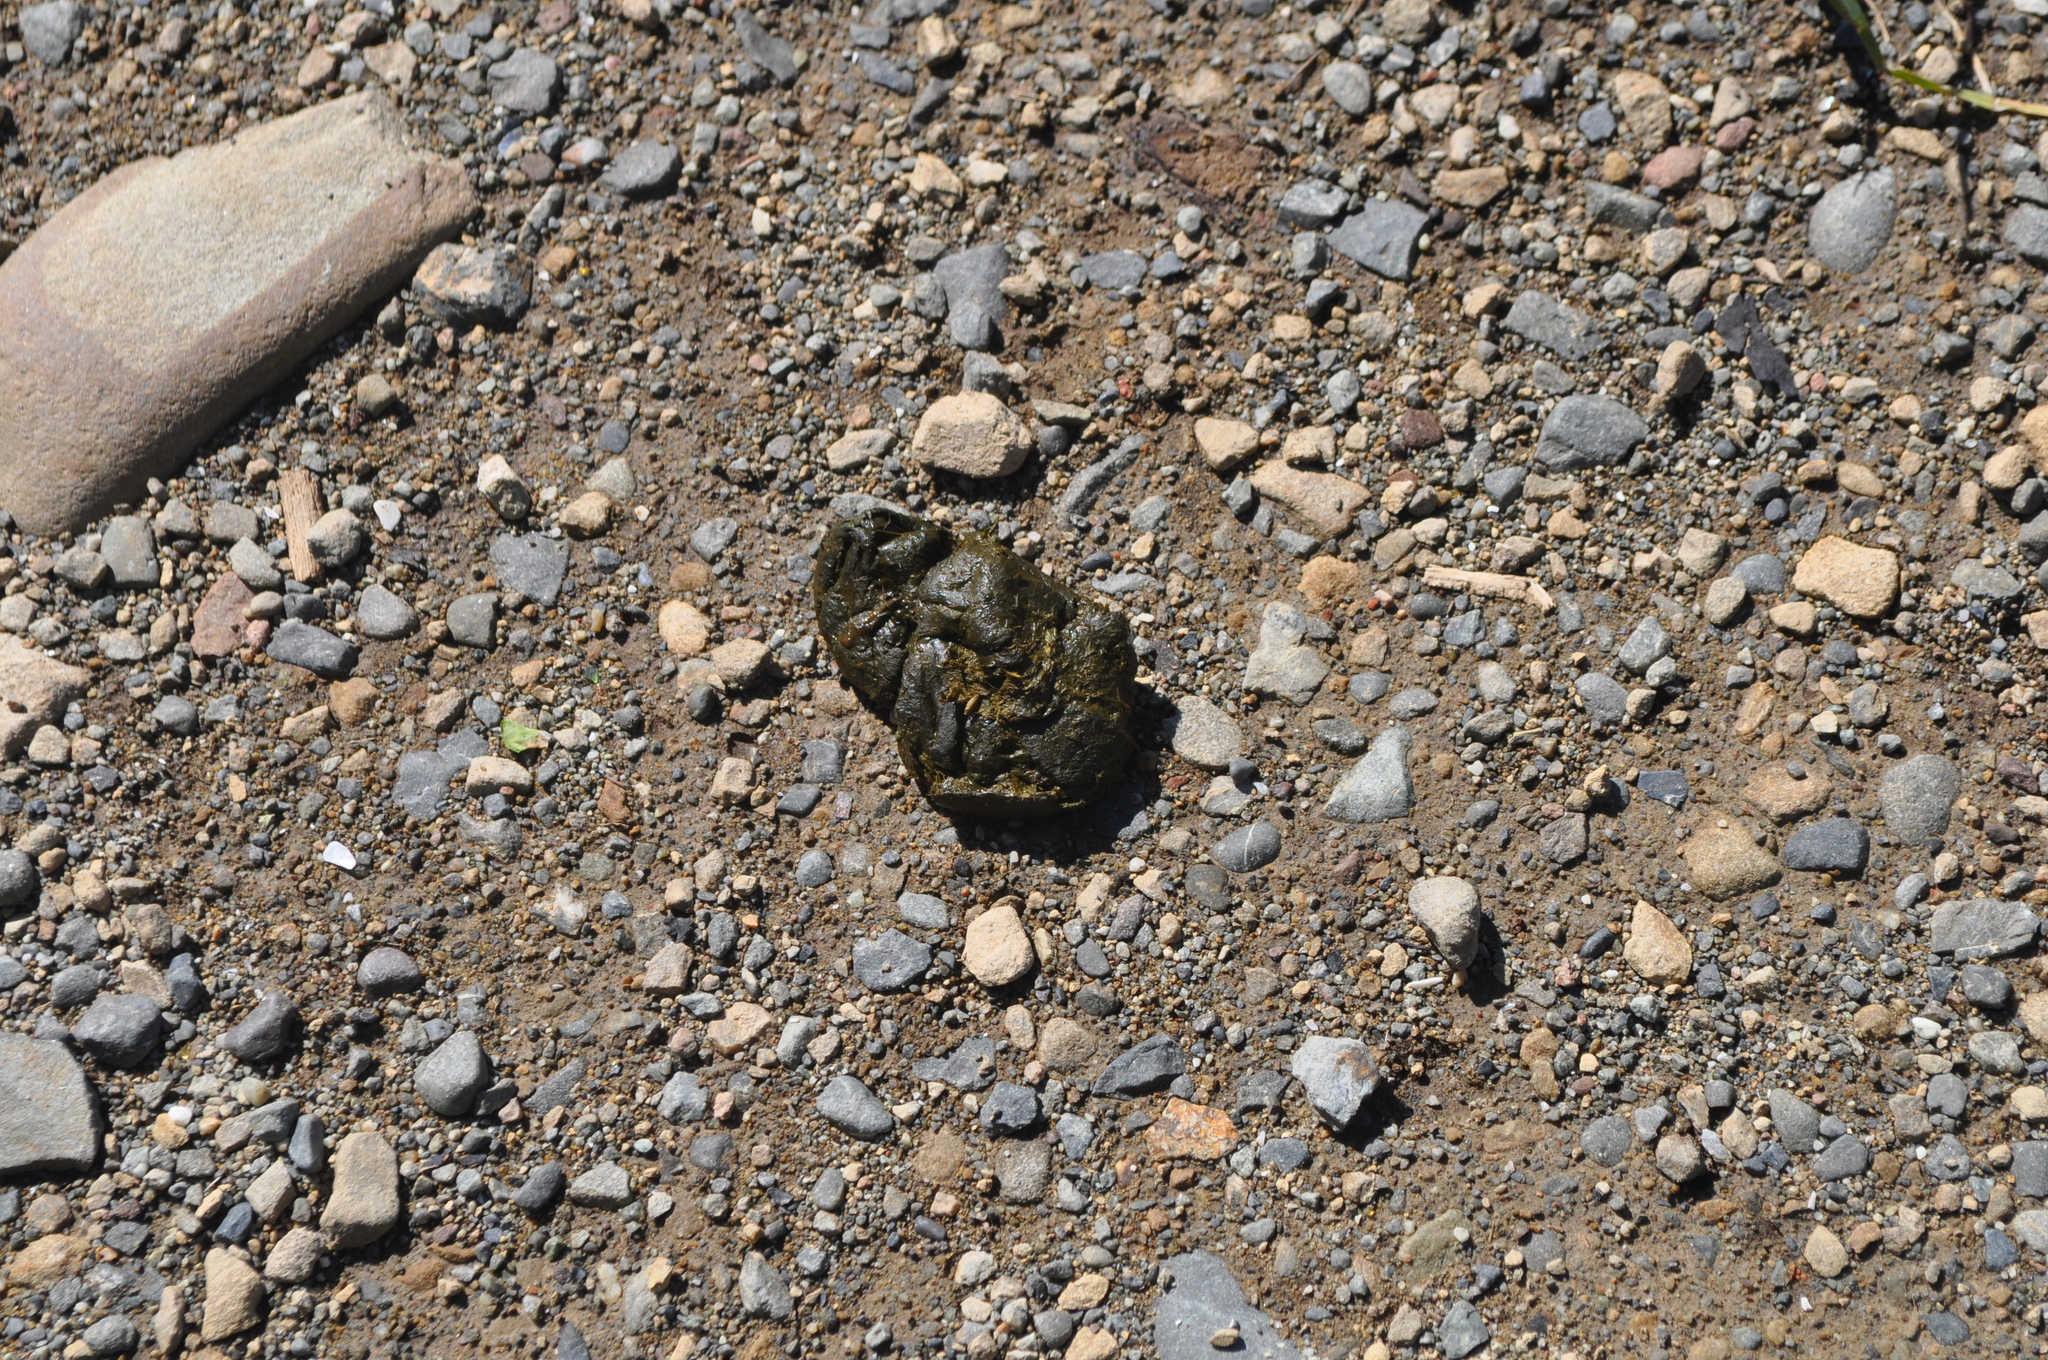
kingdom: Animalia
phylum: Chordata
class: Mammalia
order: Artiodactyla
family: Bovidae
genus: Ovis
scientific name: Ovis aries
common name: Domestic sheep
